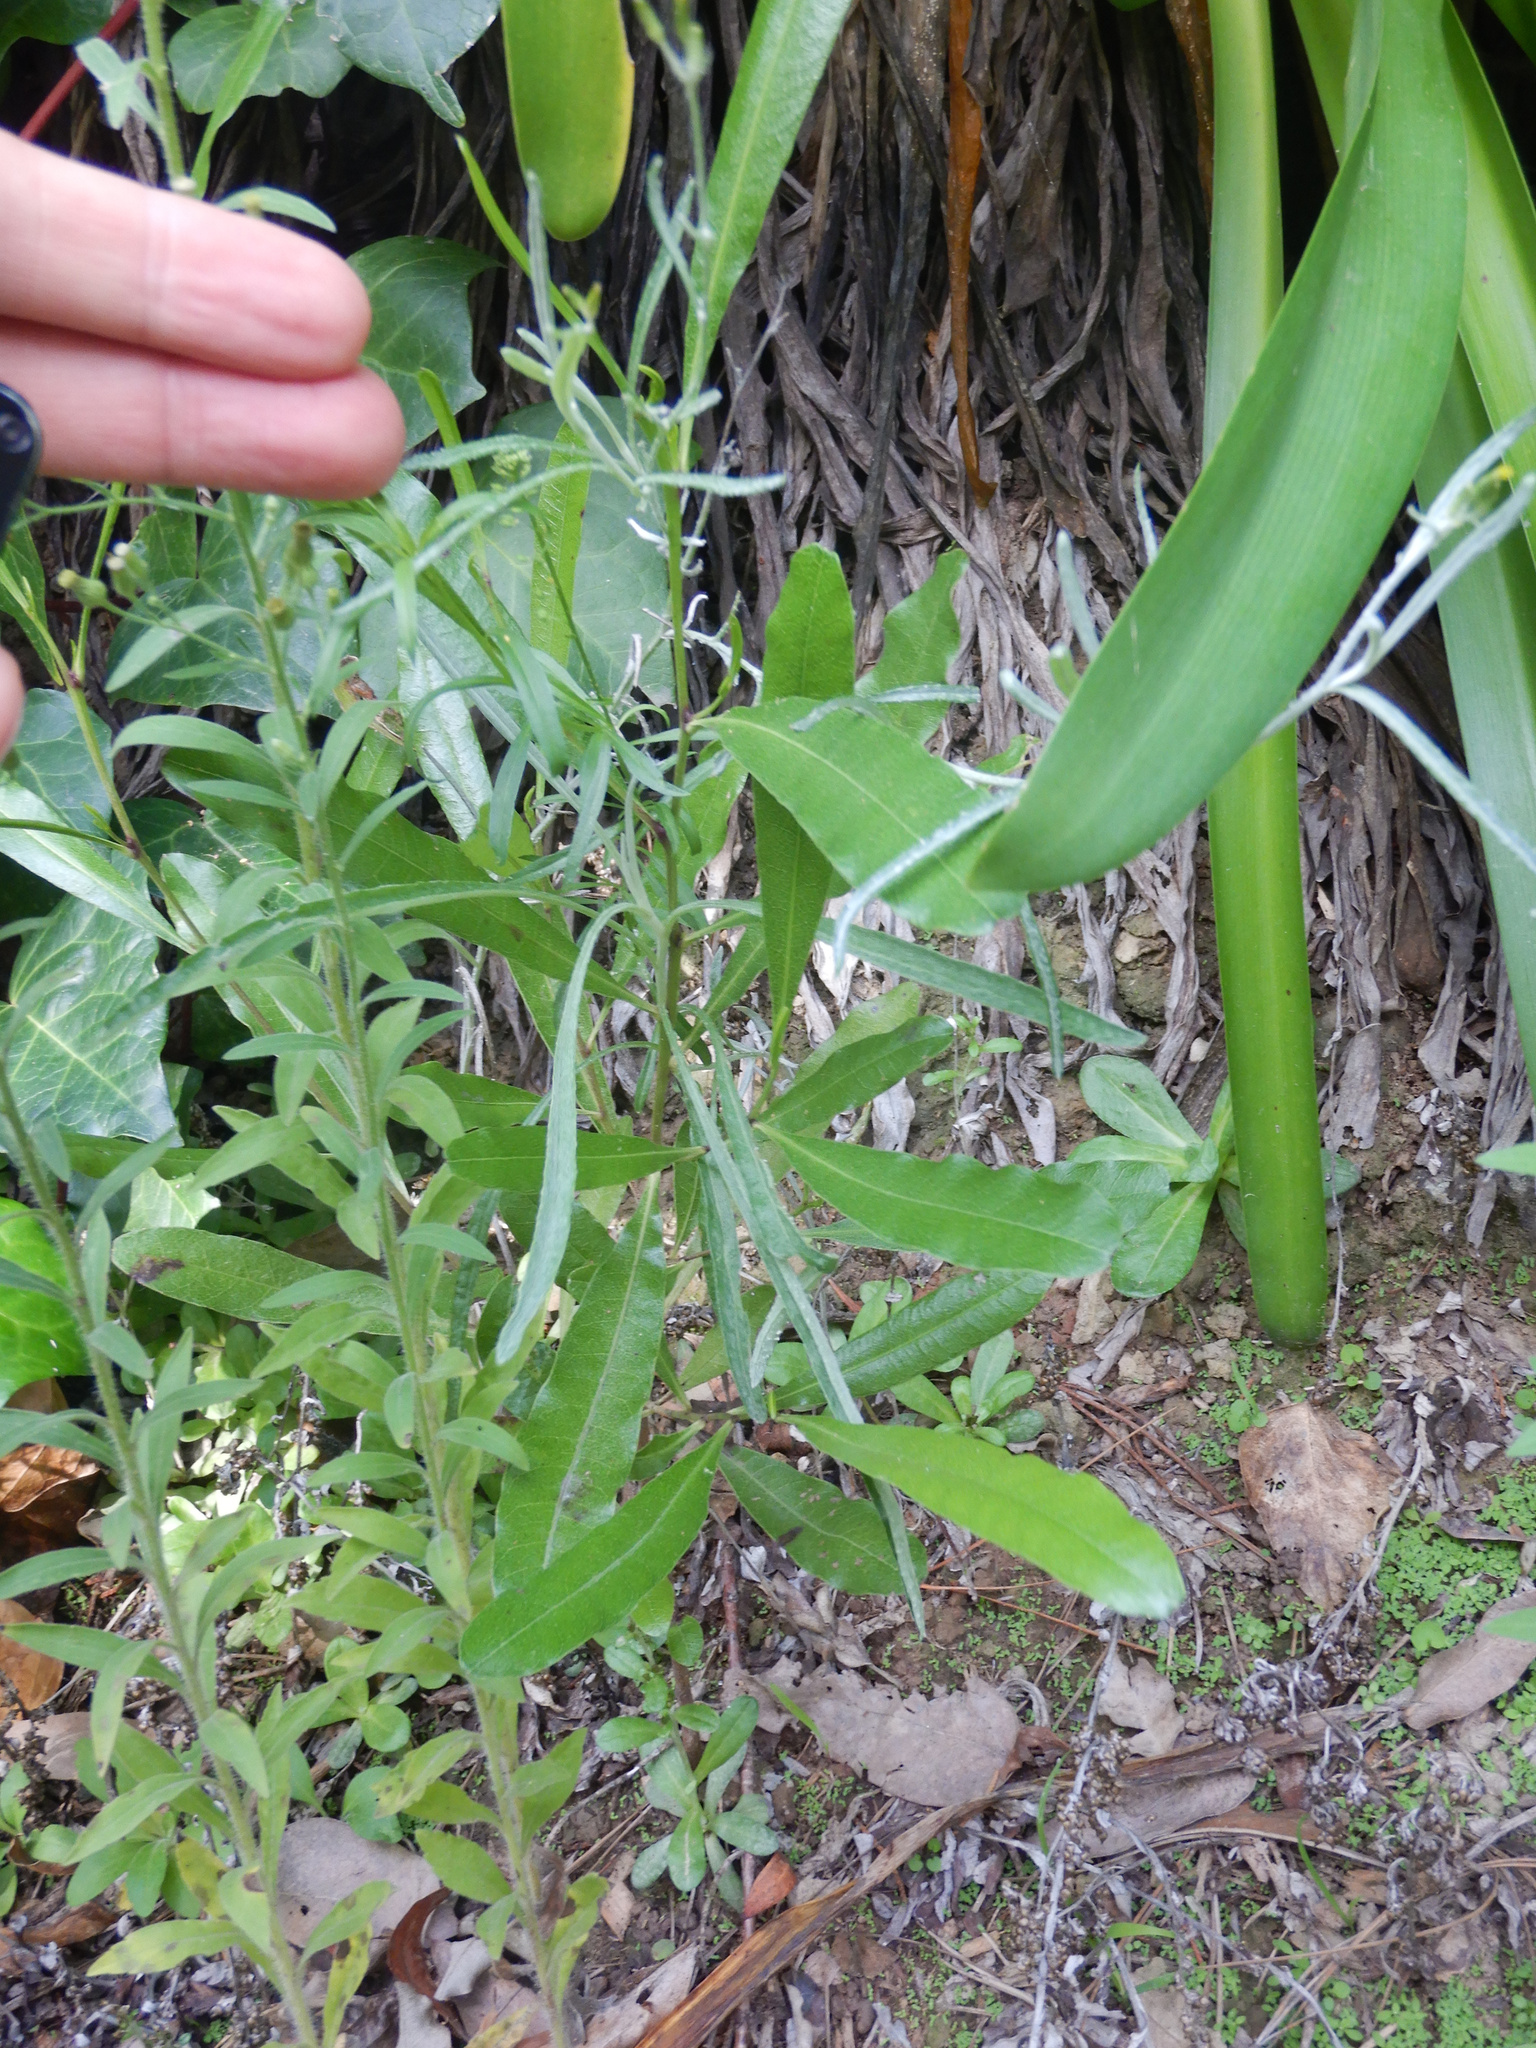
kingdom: Plantae
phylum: Tracheophyta
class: Magnoliopsida
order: Asterales
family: Asteraceae
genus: Senecio
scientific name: Senecio quadridentatus
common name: Cotton fireweed
